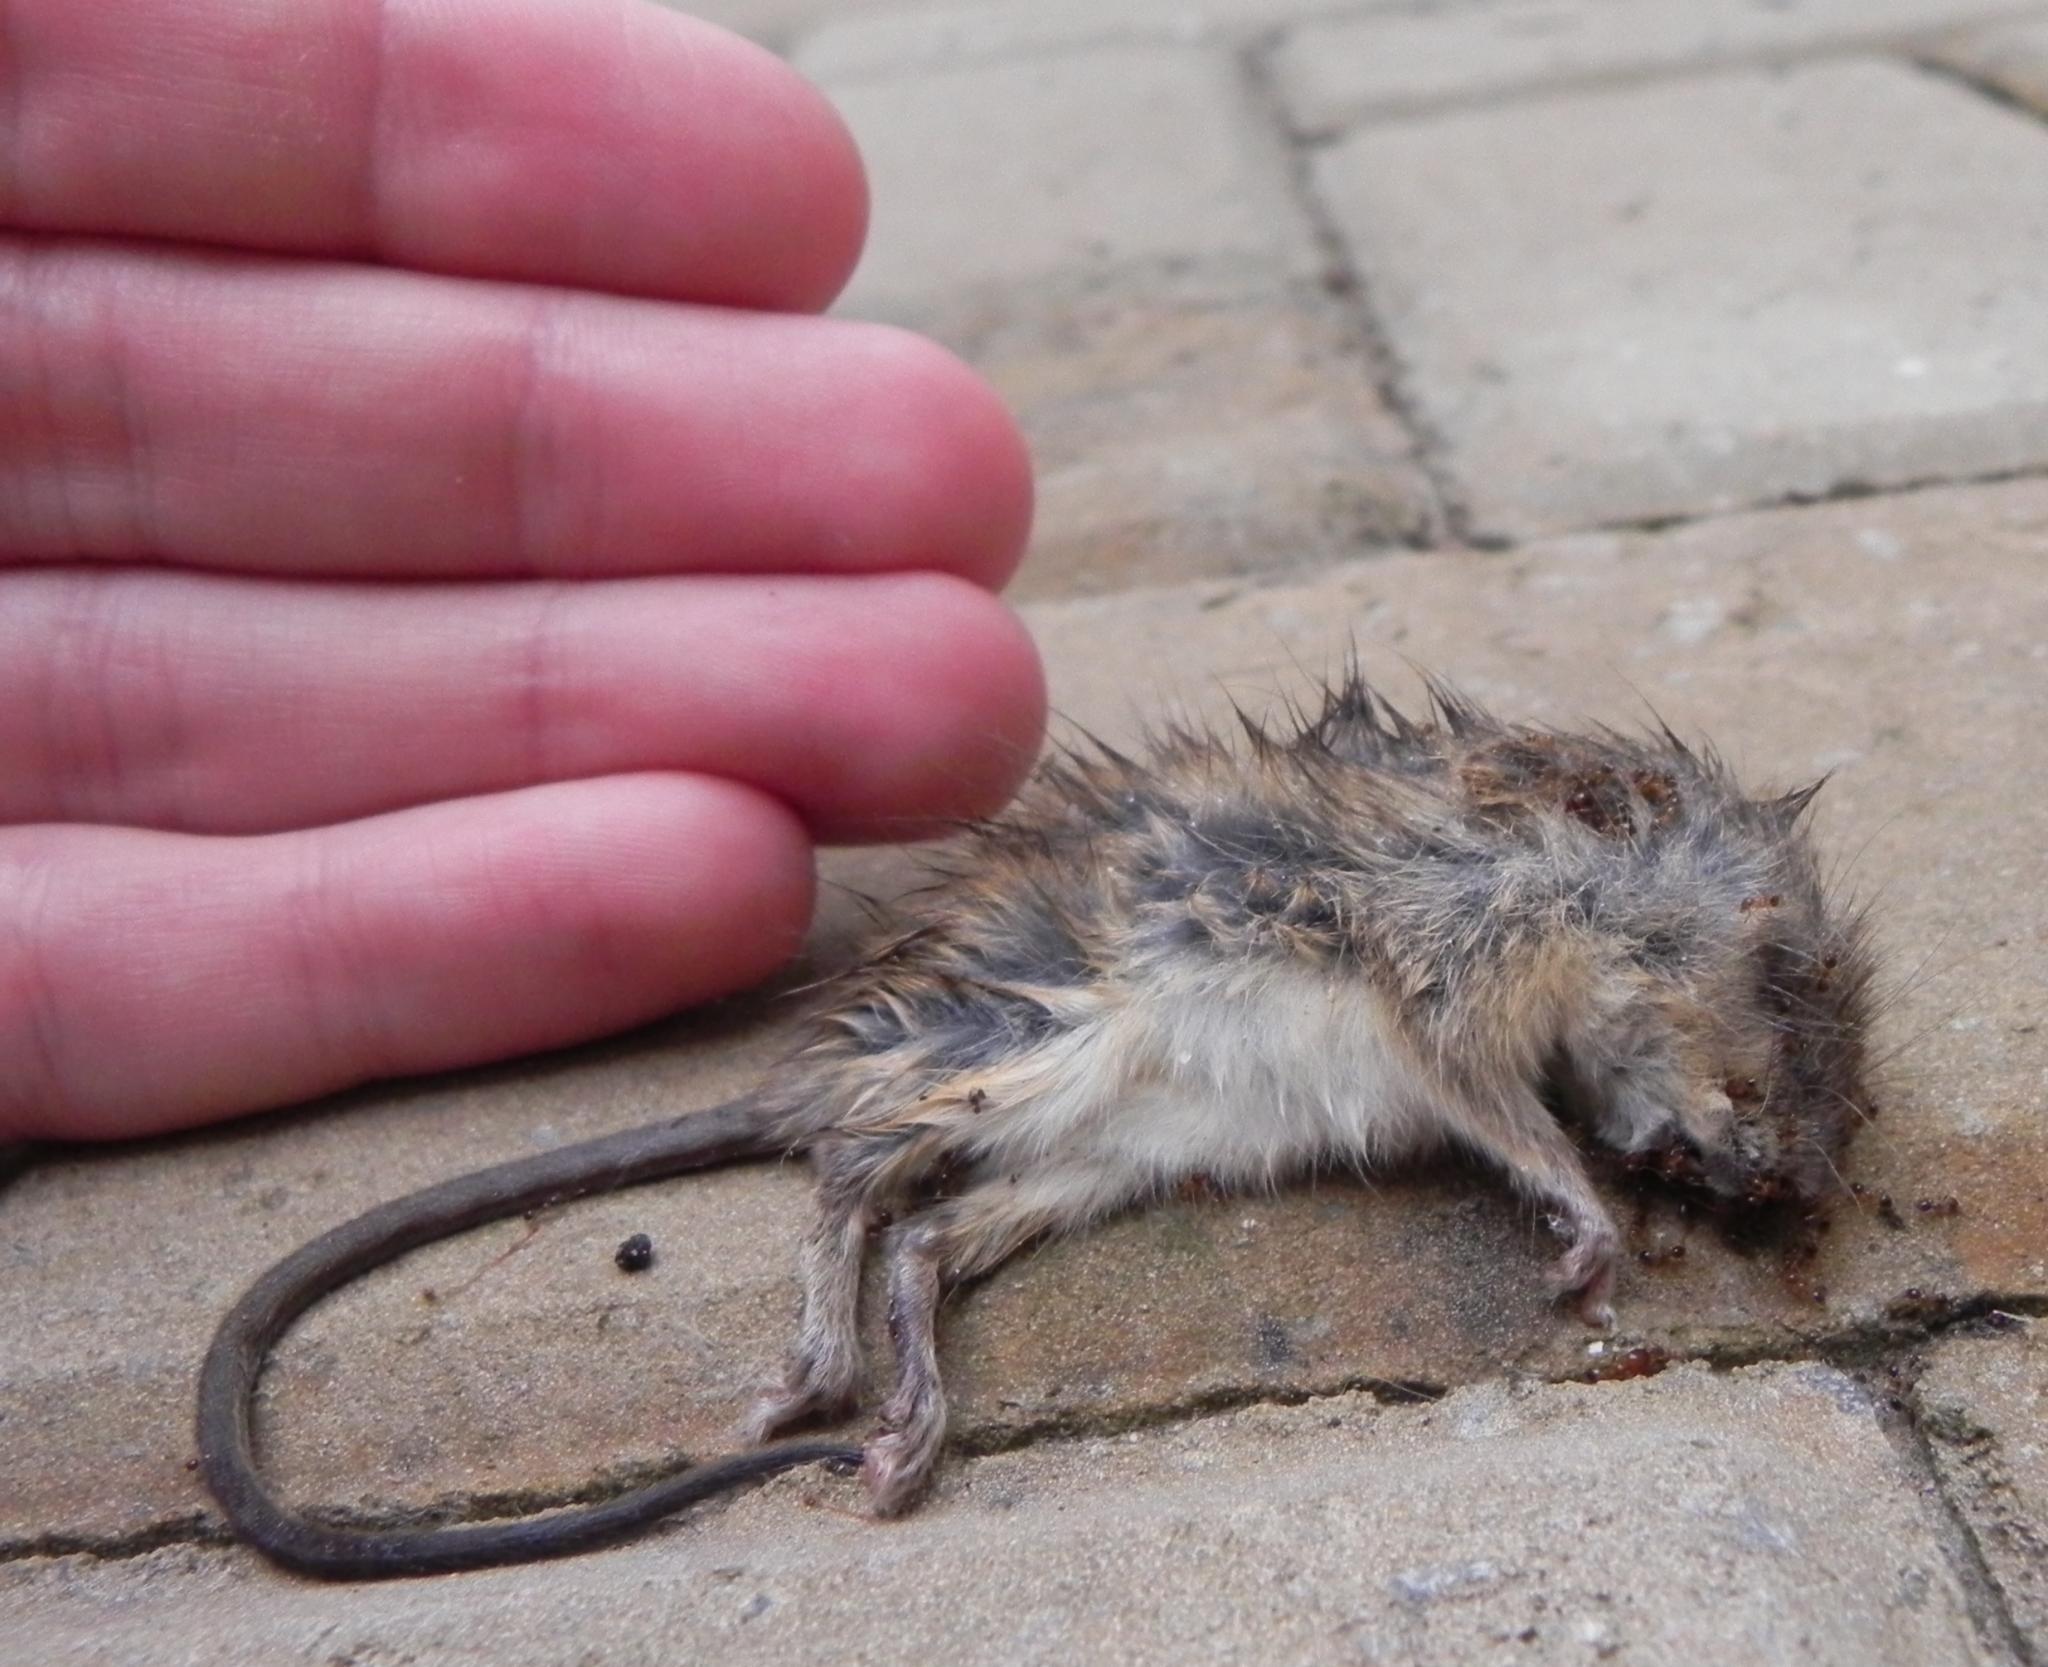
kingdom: Animalia
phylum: Chordata
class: Mammalia
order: Rodentia
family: Muridae
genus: Grammomys
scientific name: Grammomys dolichurus
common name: Common grammomys
